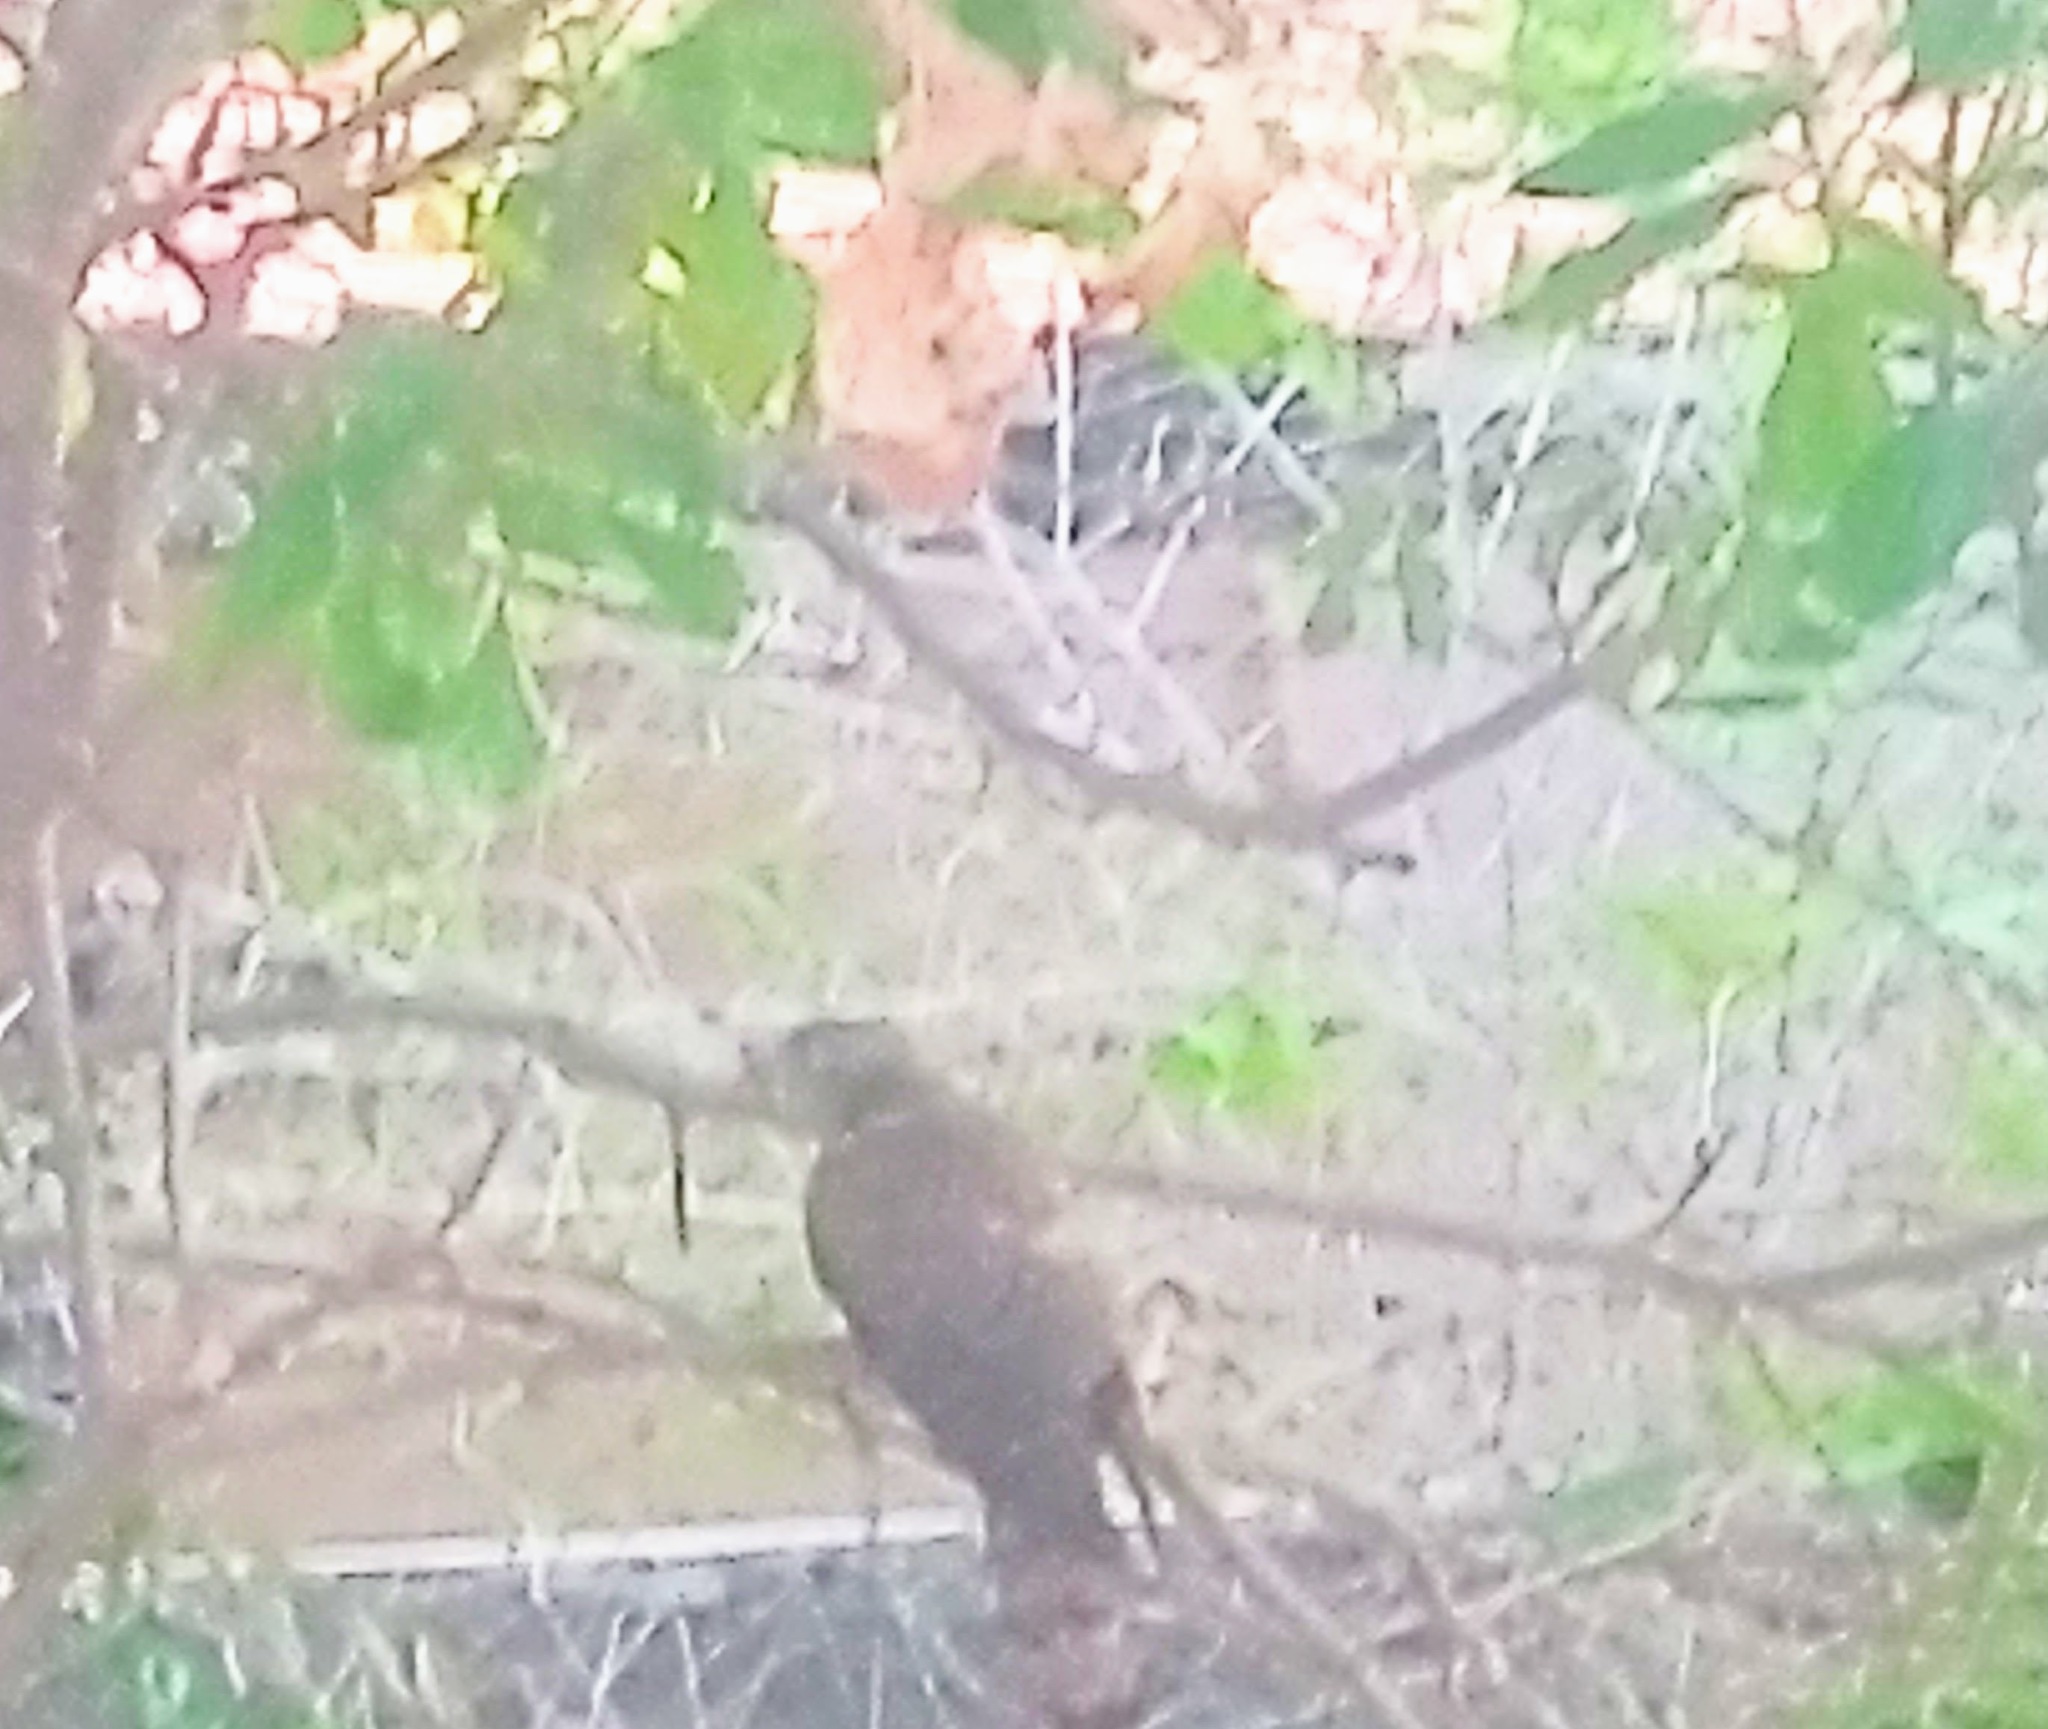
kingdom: Animalia
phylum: Chordata
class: Aves
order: Accipitriformes
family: Accipitridae
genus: Accipiter
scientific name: Accipiter badius
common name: Shikra
